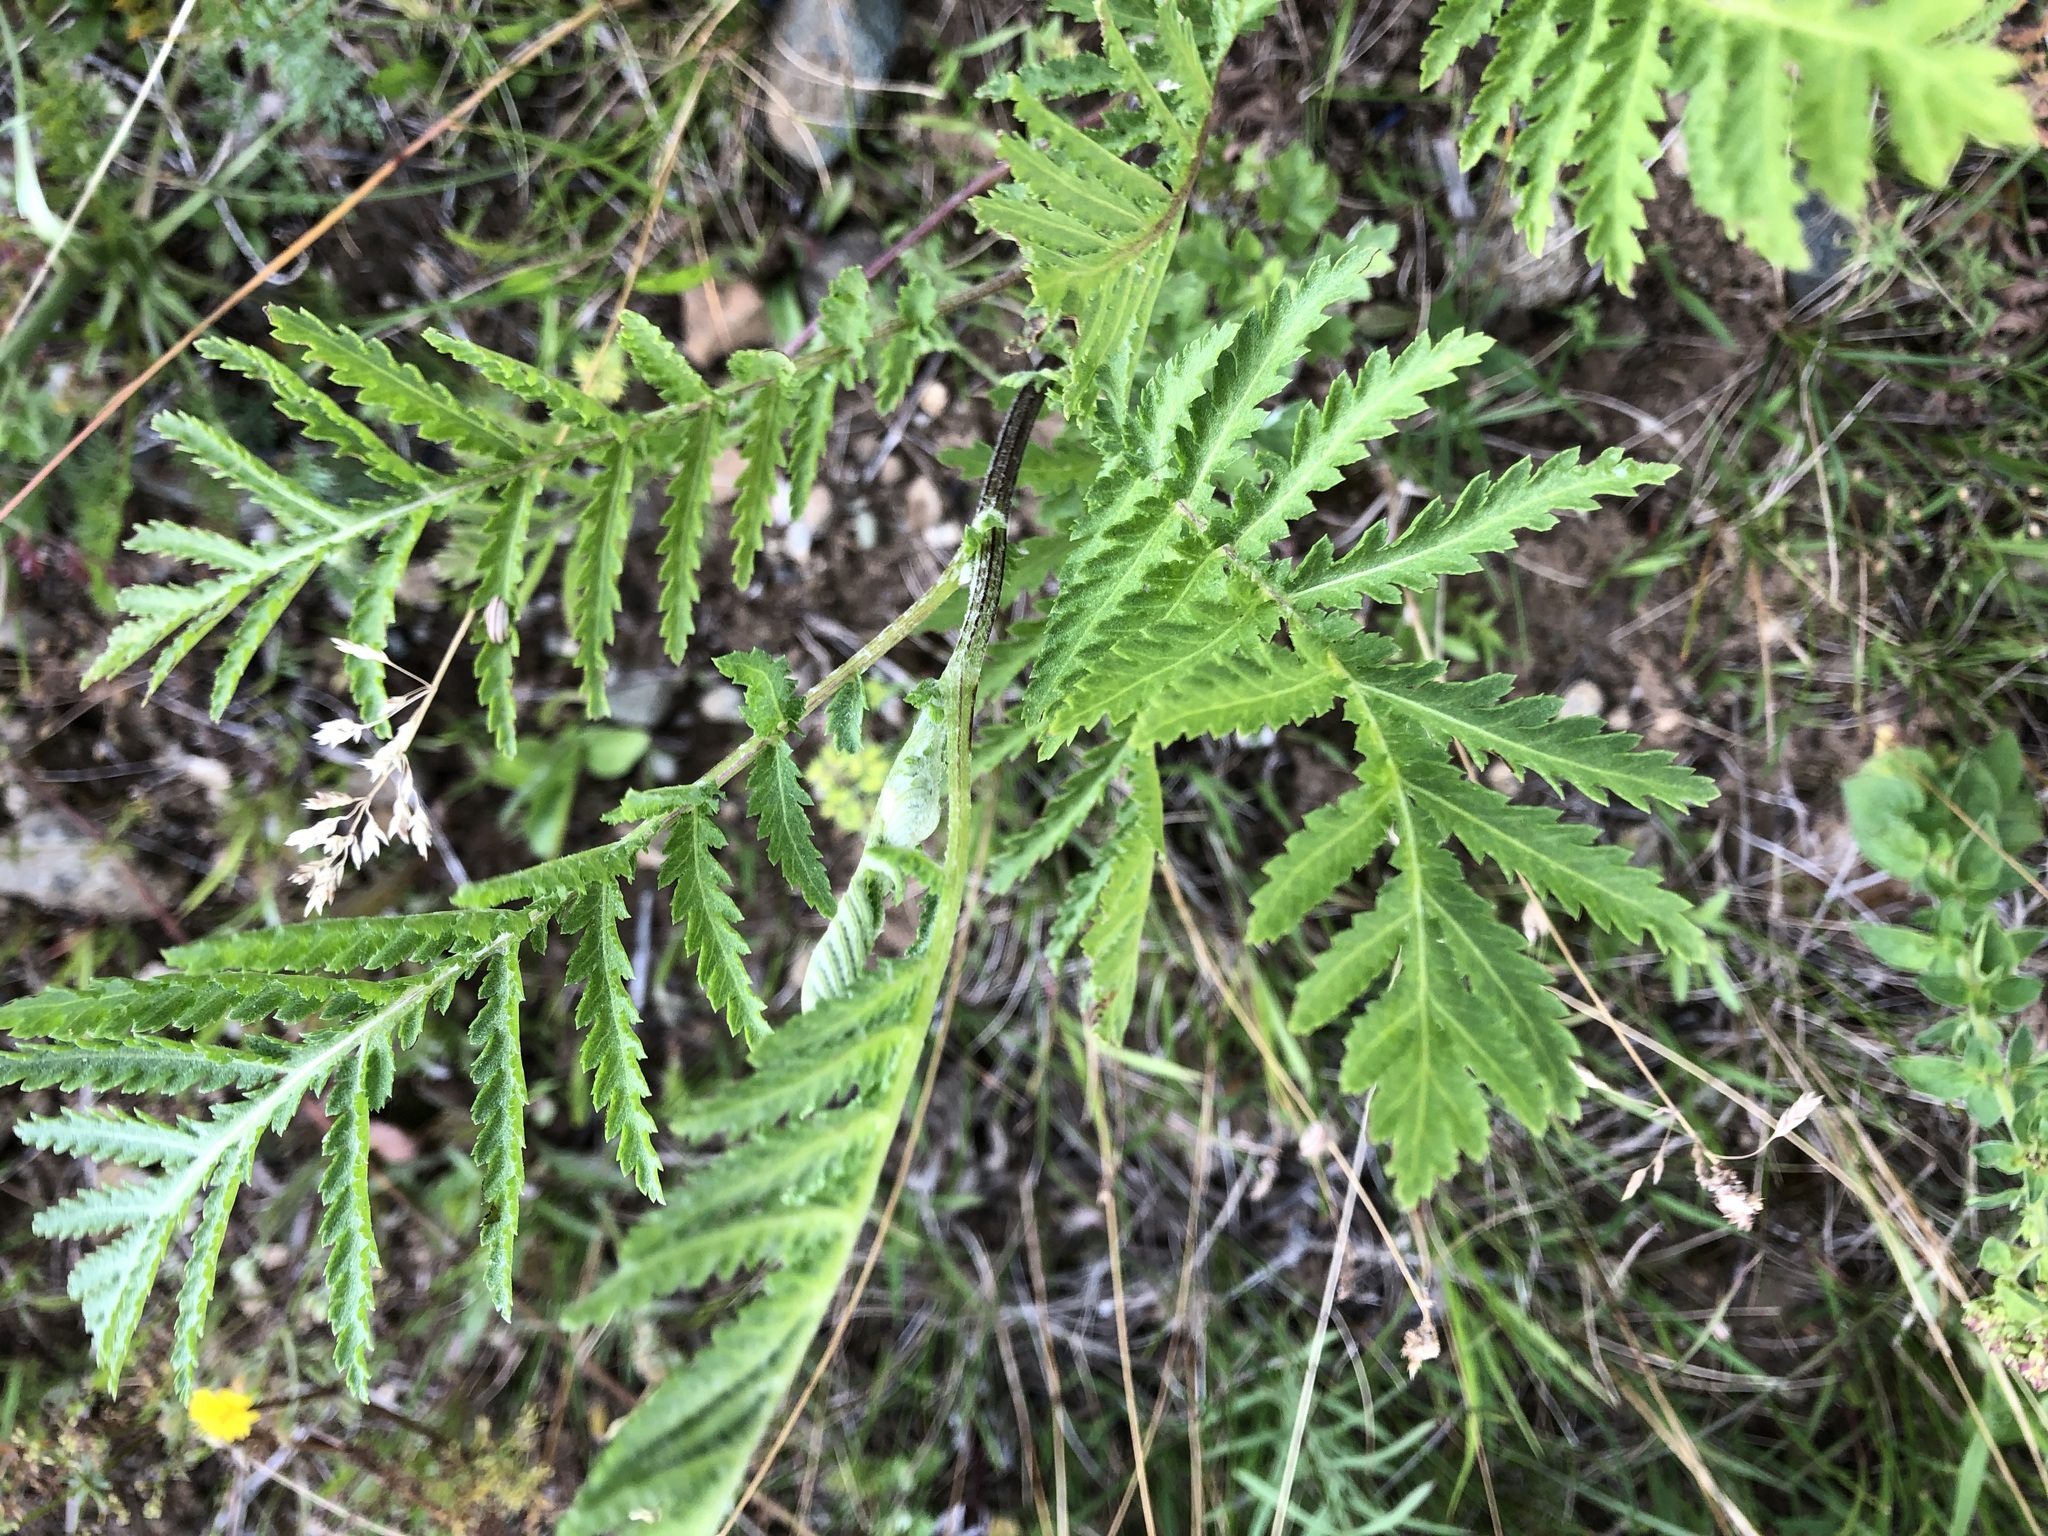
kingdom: Plantae
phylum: Tracheophyta
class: Magnoliopsida
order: Asterales
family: Asteraceae
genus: Tanacetum
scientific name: Tanacetum vulgare
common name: Common tansy
